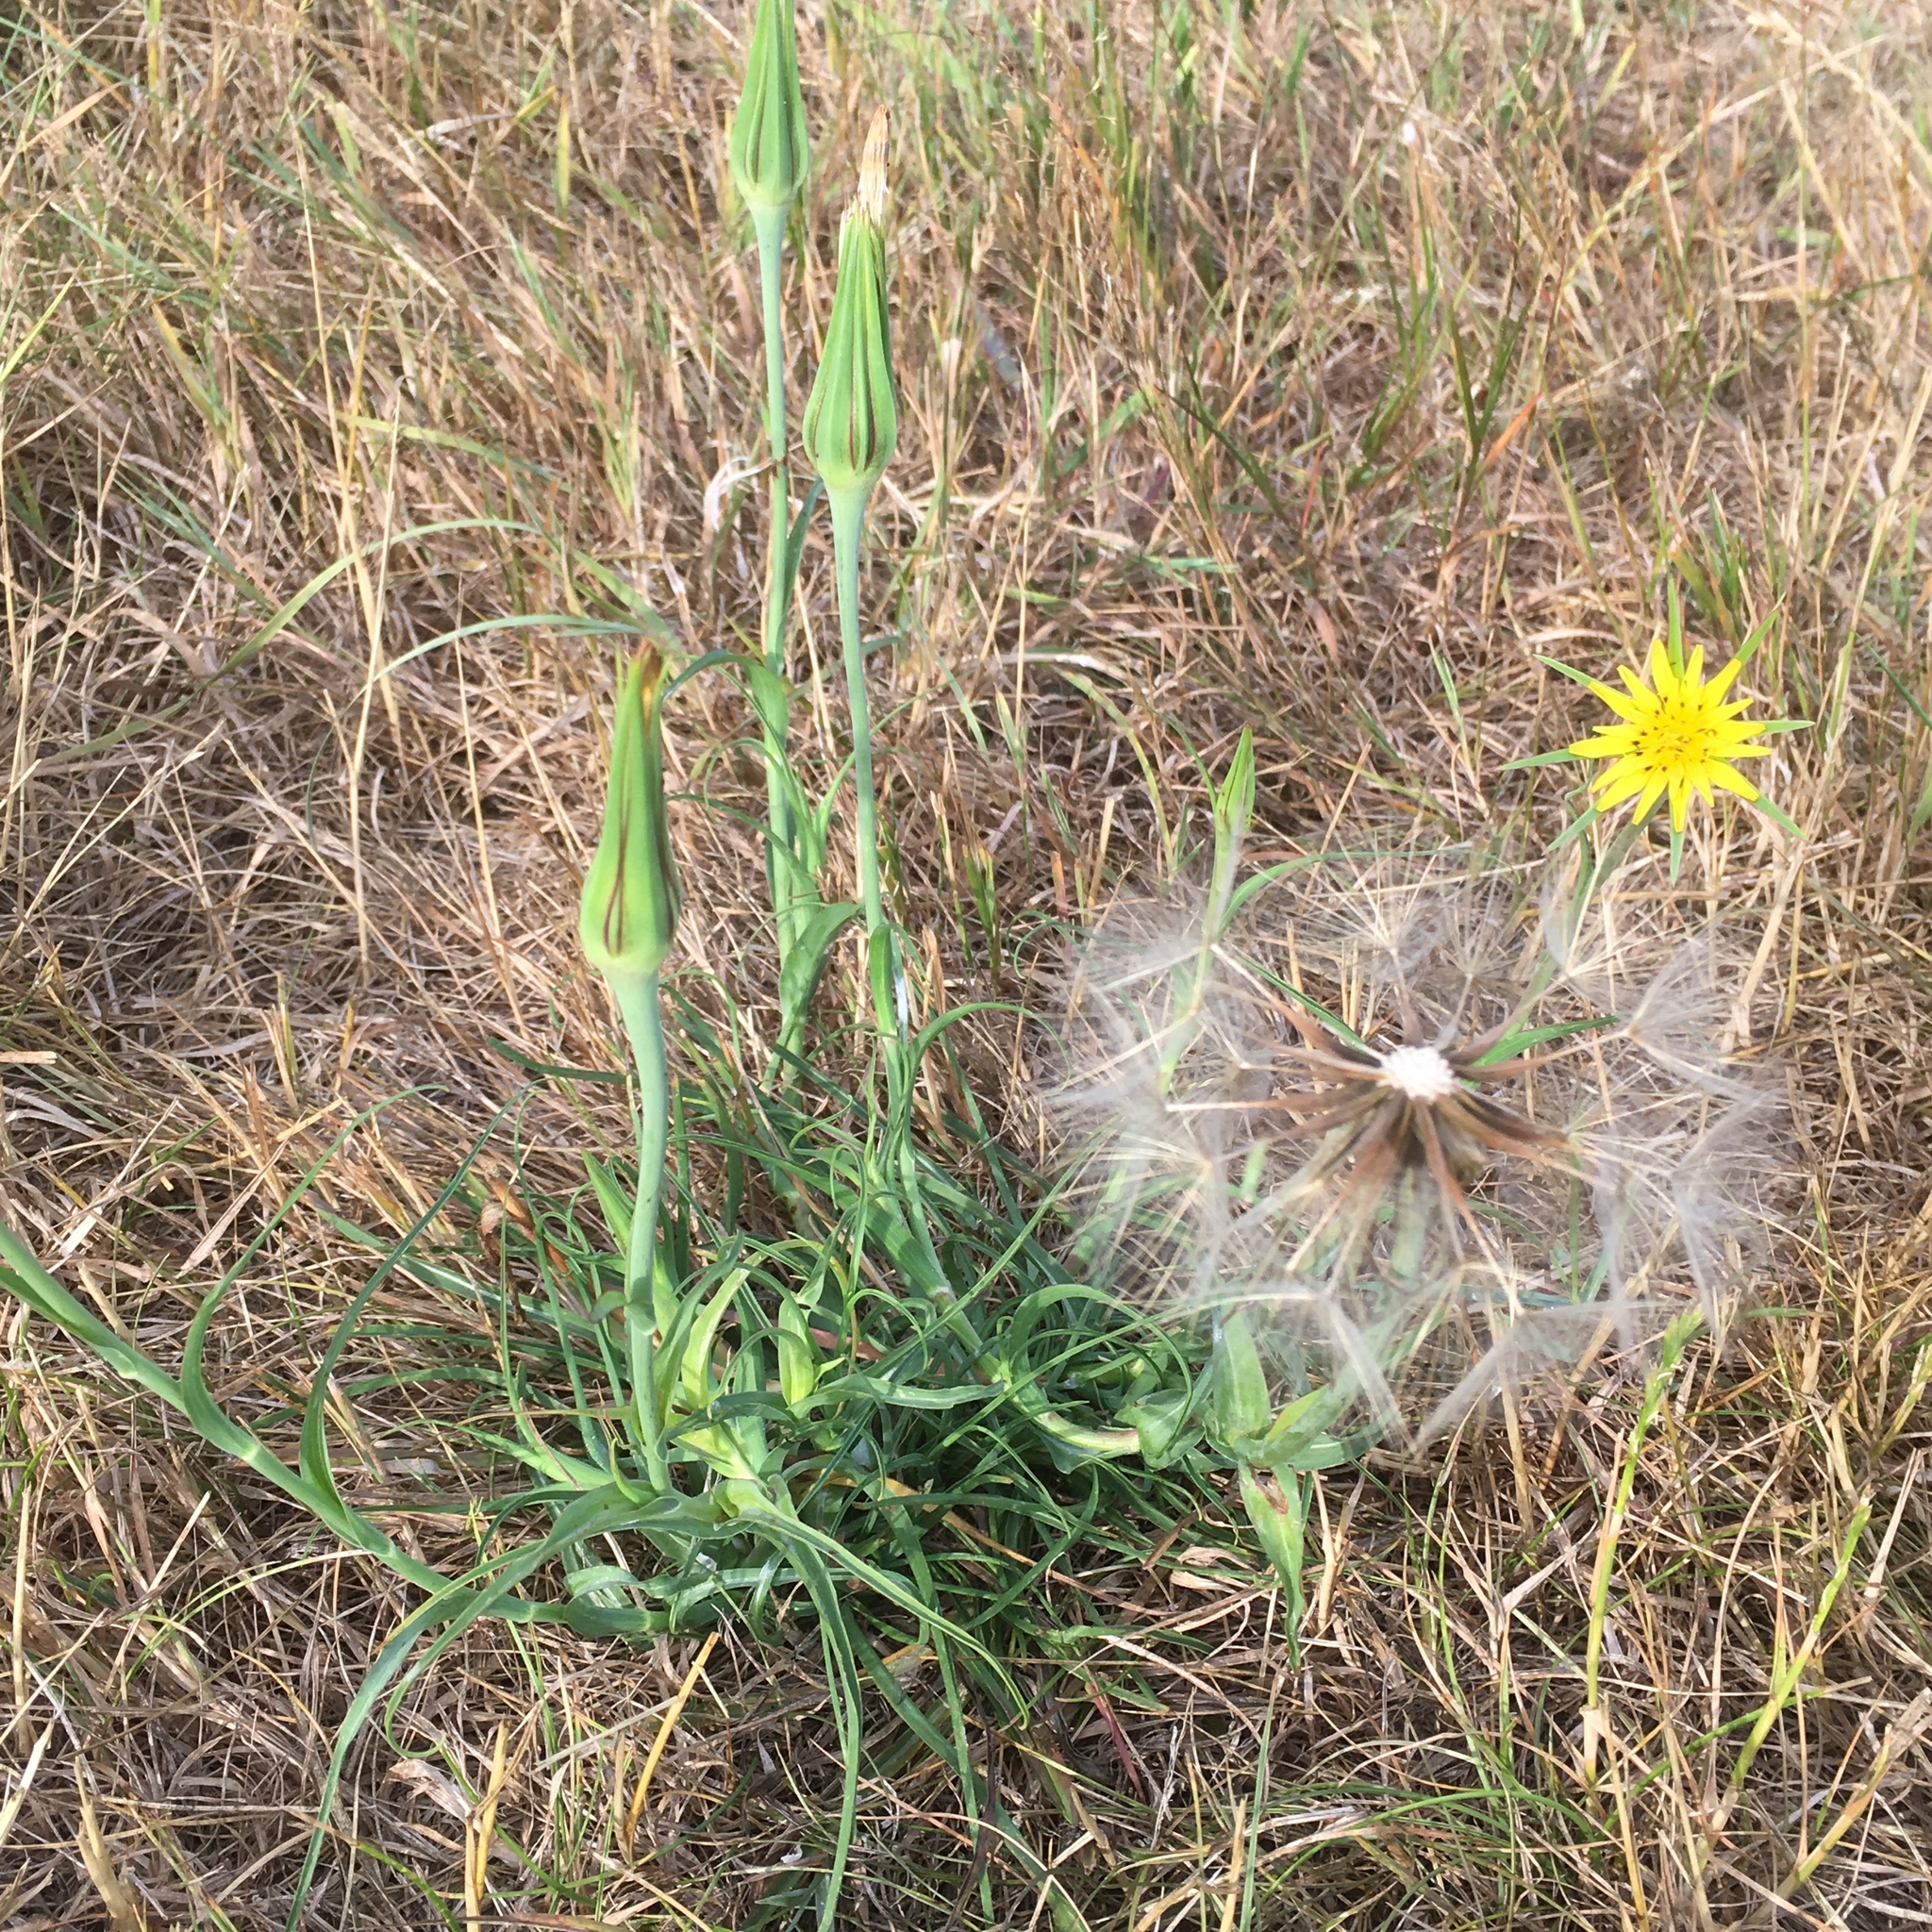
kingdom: Plantae
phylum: Tracheophyta
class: Magnoliopsida
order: Asterales
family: Asteraceae
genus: Tragopogon
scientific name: Tragopogon dubius
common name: Yellow salsify
